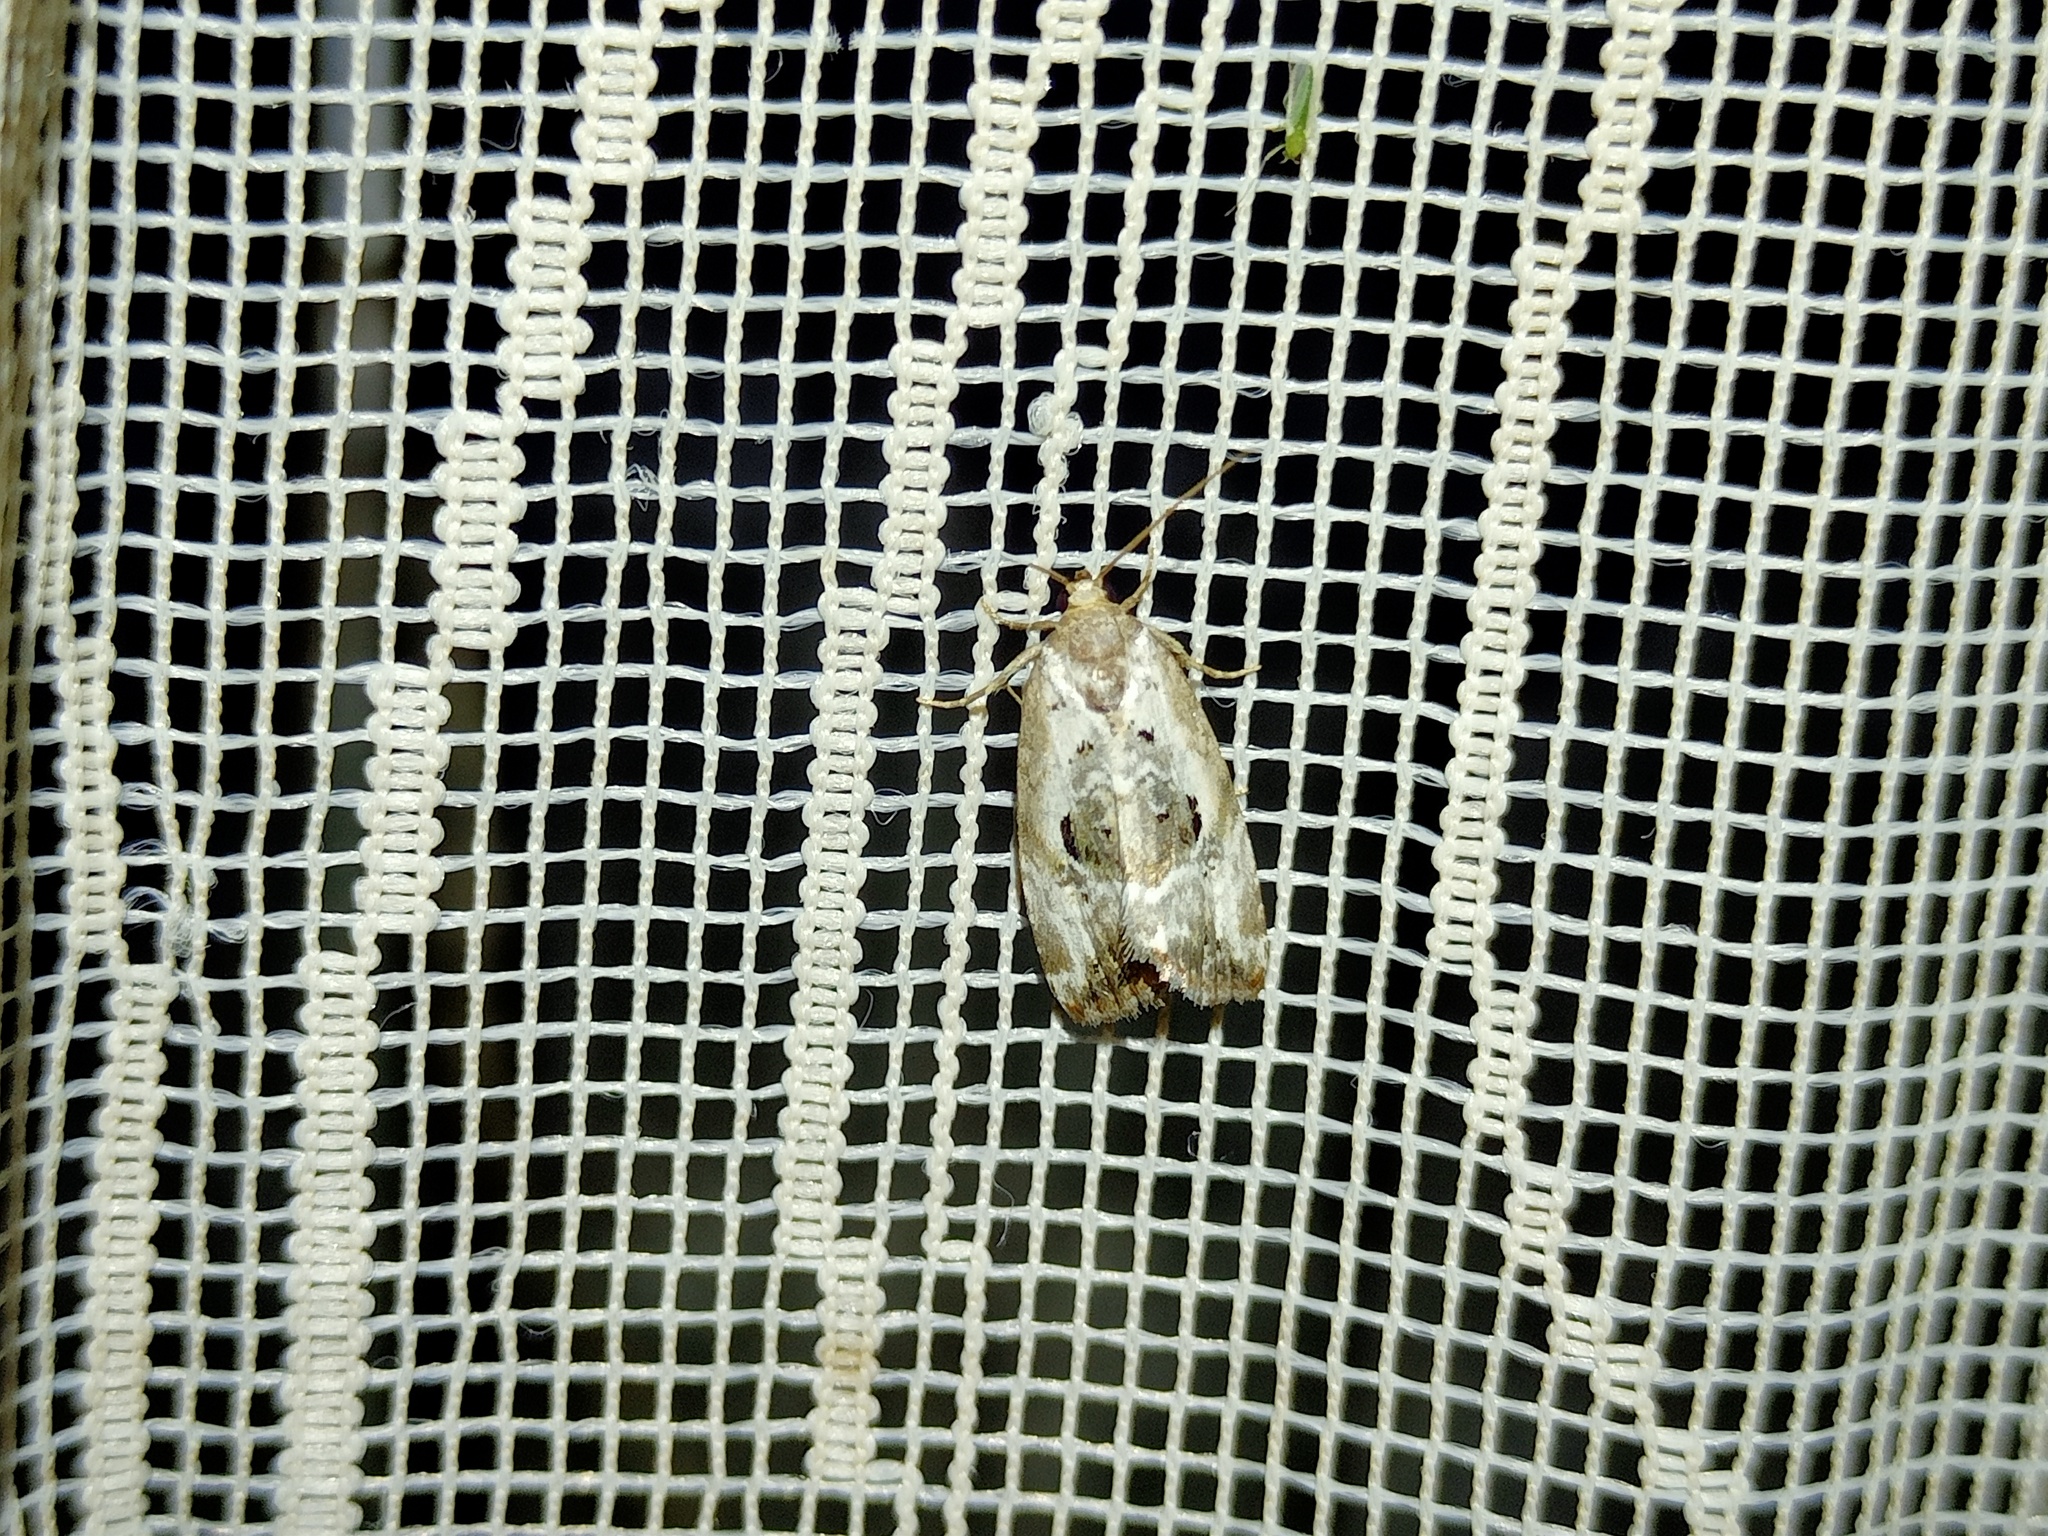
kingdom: Animalia
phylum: Arthropoda
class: Insecta
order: Lepidoptera
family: Noctuidae
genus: Elaphria
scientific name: Elaphria venustula
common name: Rosy marbled
